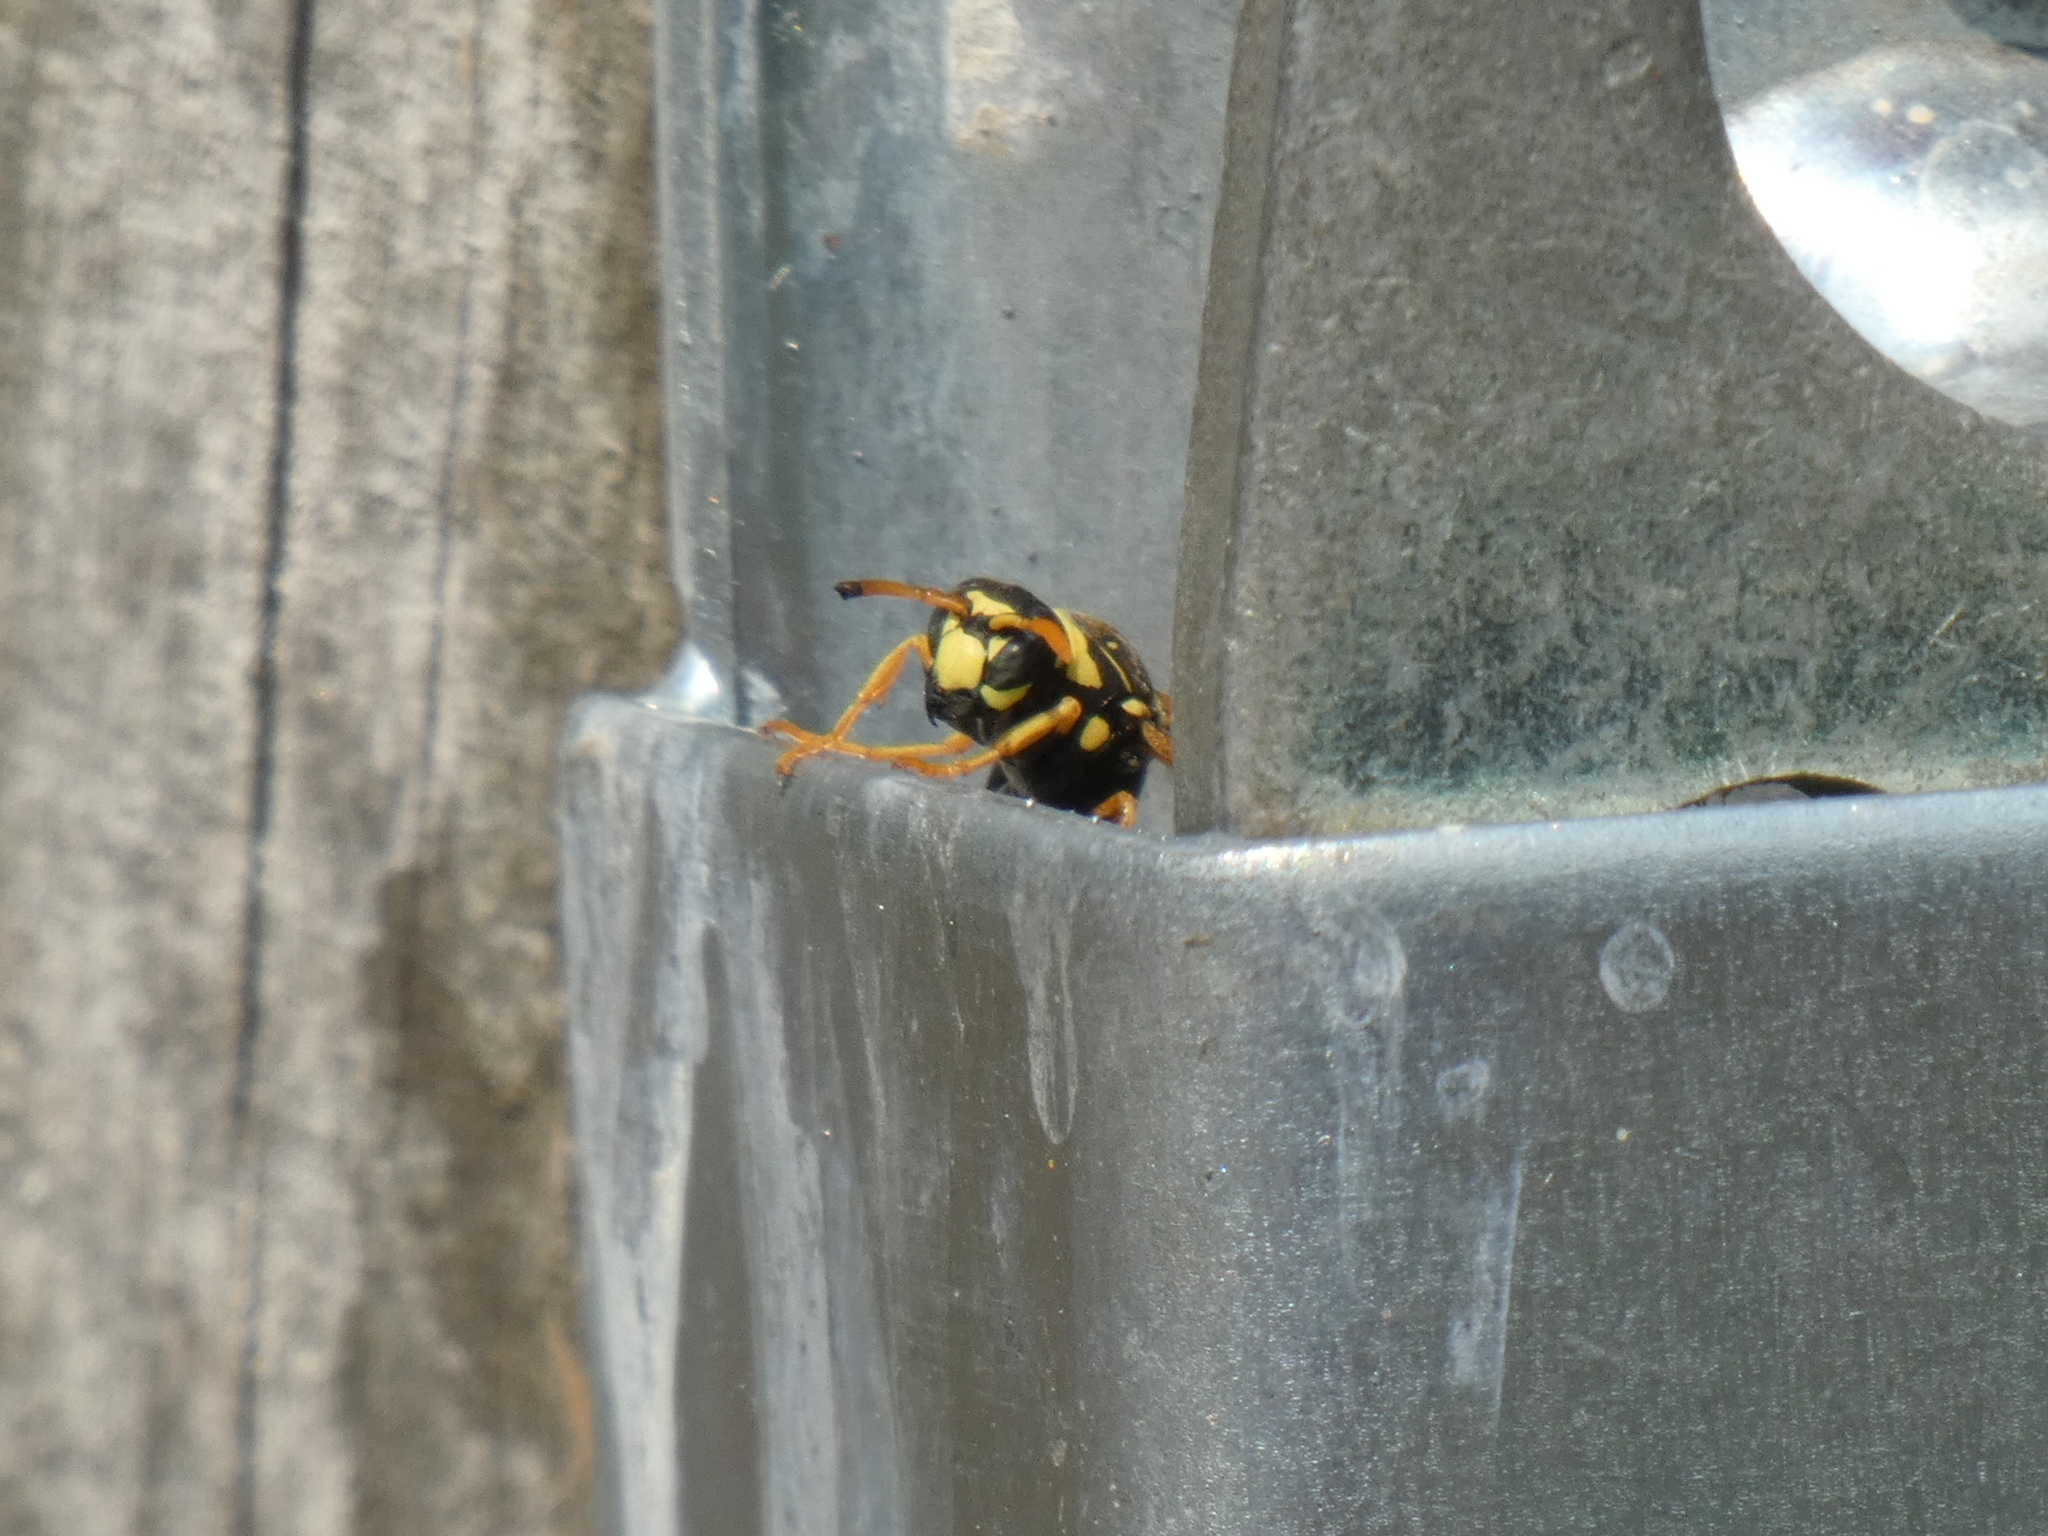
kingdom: Animalia
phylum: Arthropoda
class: Insecta
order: Hymenoptera
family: Eumenidae
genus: Polistes
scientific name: Polistes dominula
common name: Paper wasp
